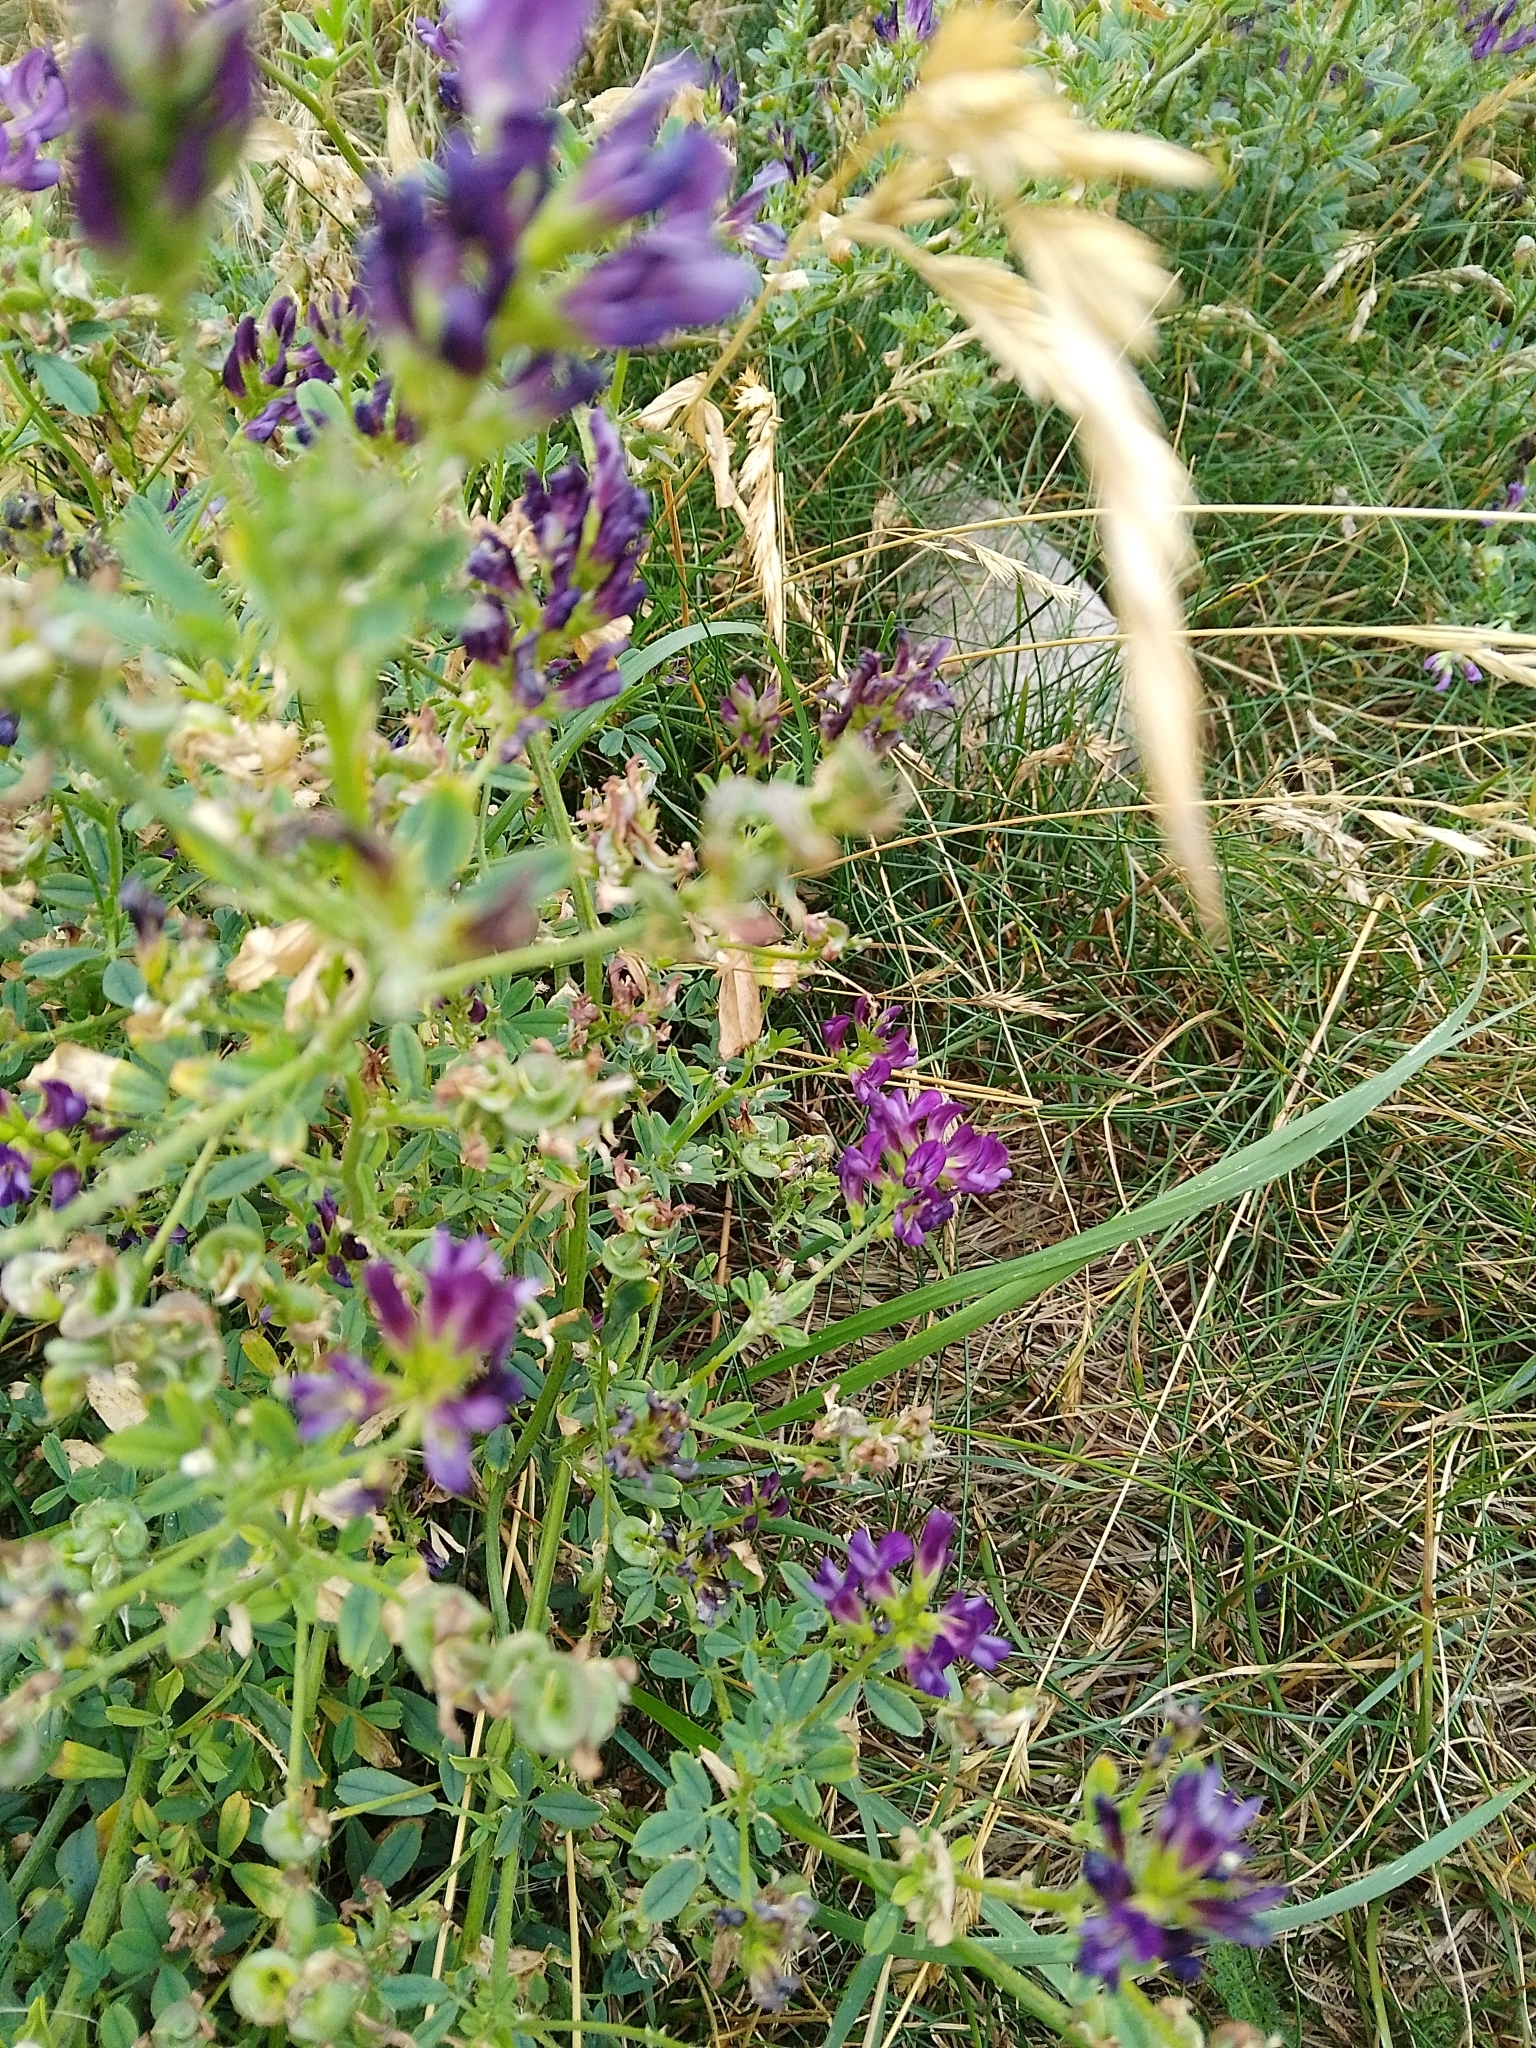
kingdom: Plantae
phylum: Tracheophyta
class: Magnoliopsida
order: Fabales
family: Fabaceae
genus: Medicago
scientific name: Medicago sativa
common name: Alfalfa
